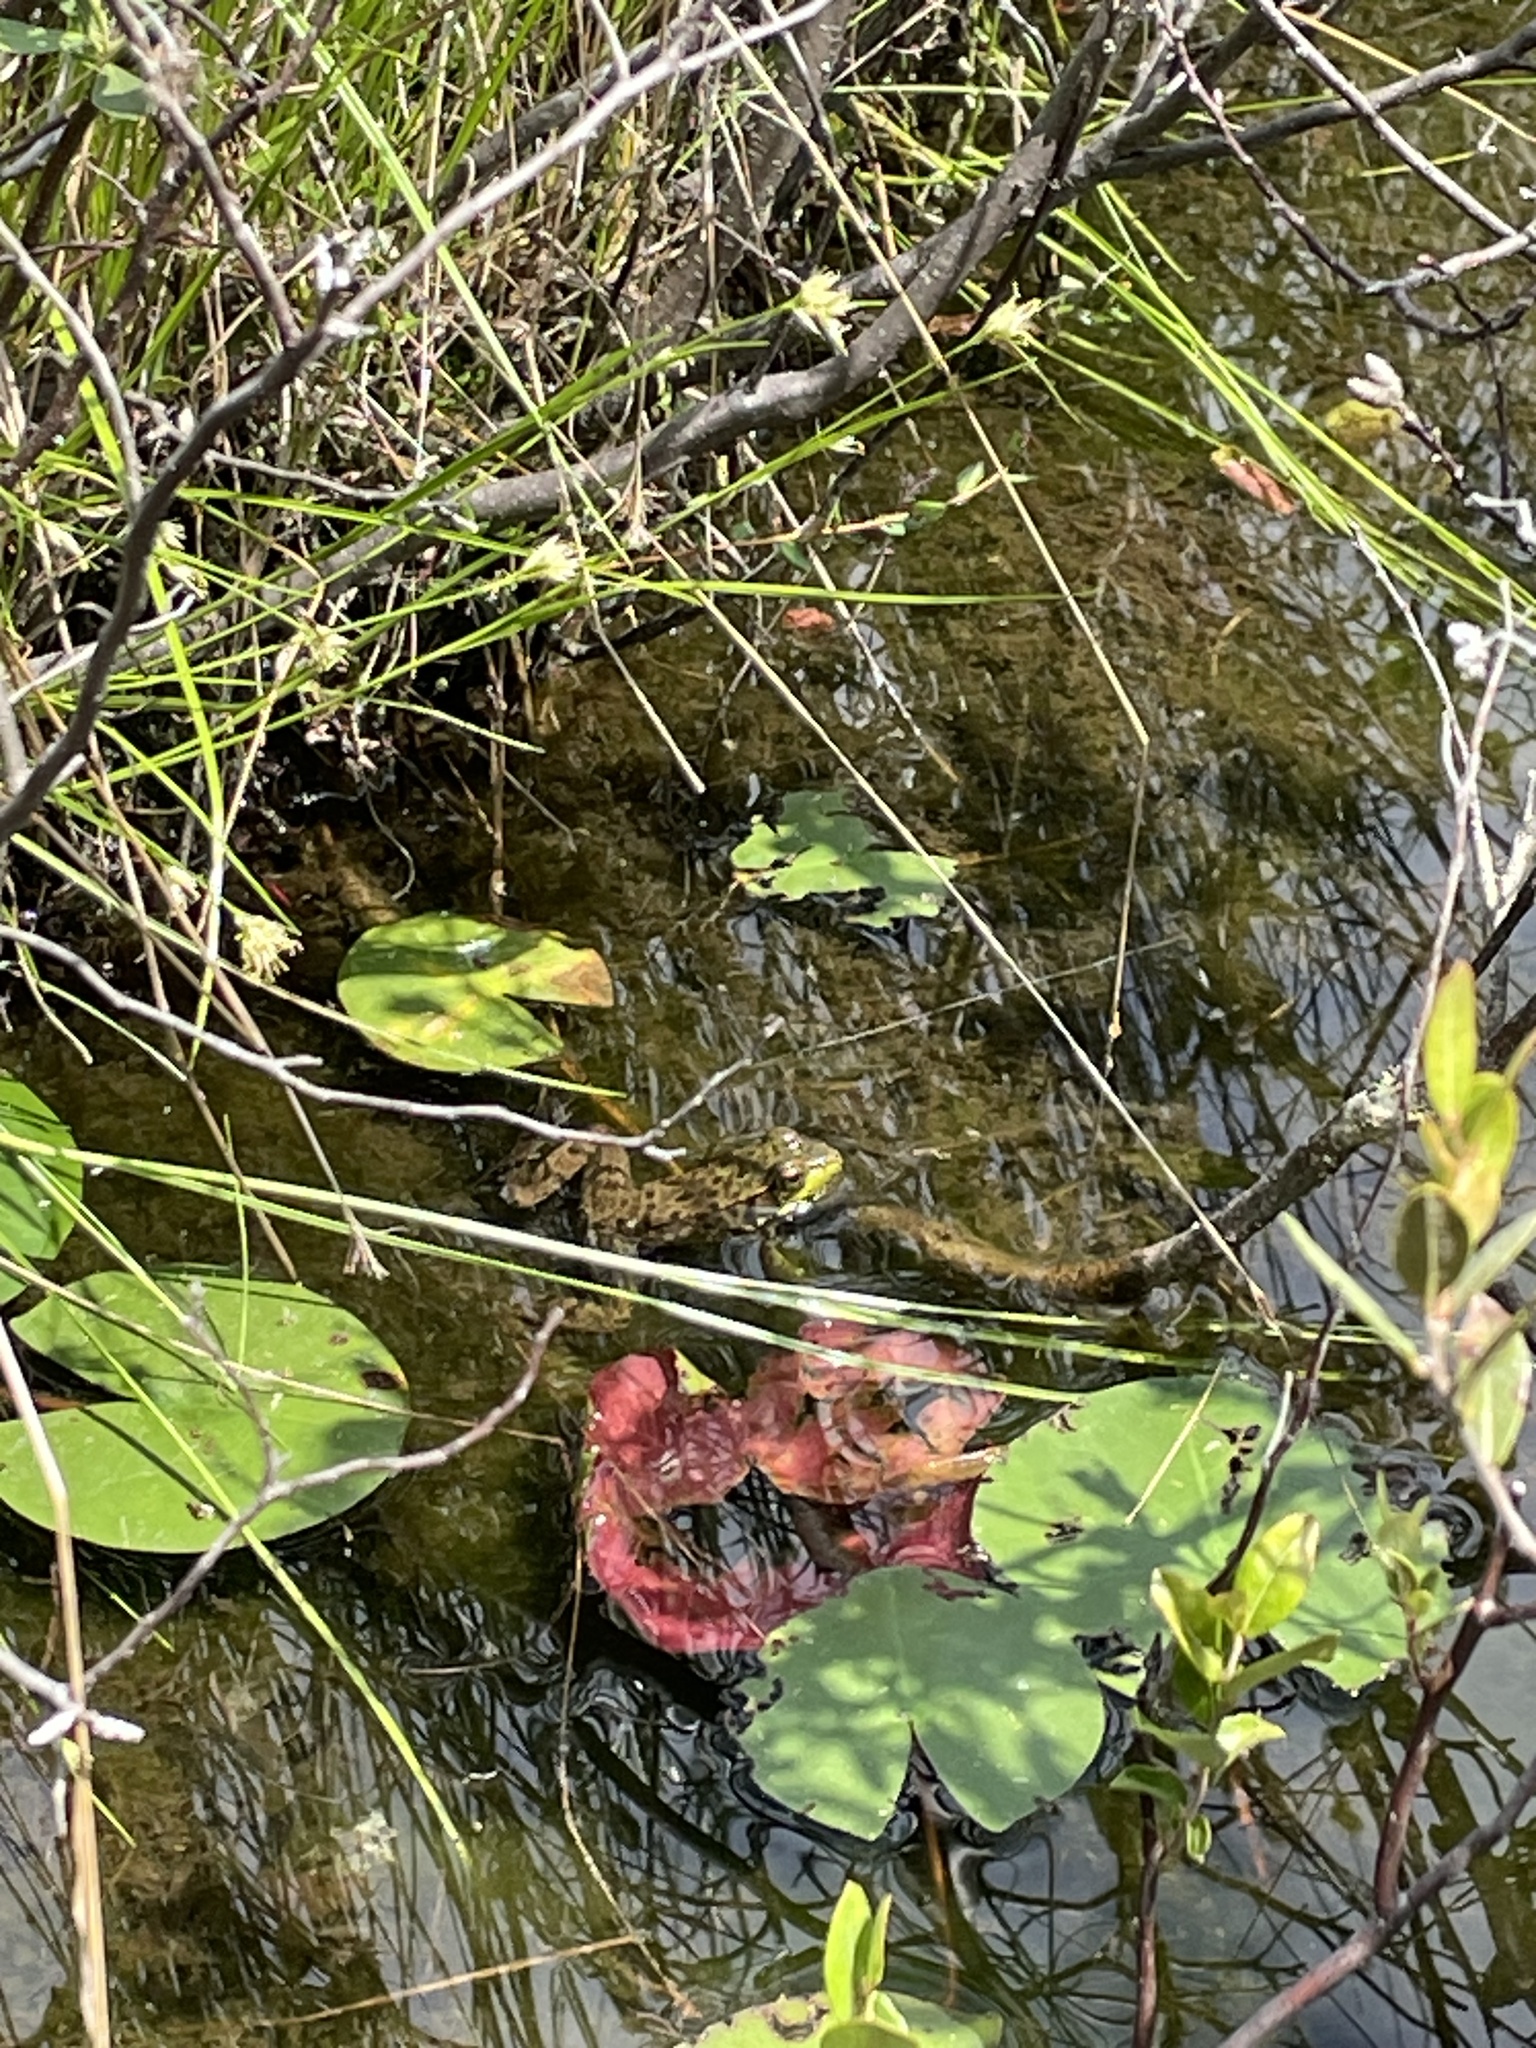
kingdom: Animalia
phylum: Chordata
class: Amphibia
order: Anura
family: Ranidae
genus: Lithobates
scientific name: Lithobates clamitans
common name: Green frog
